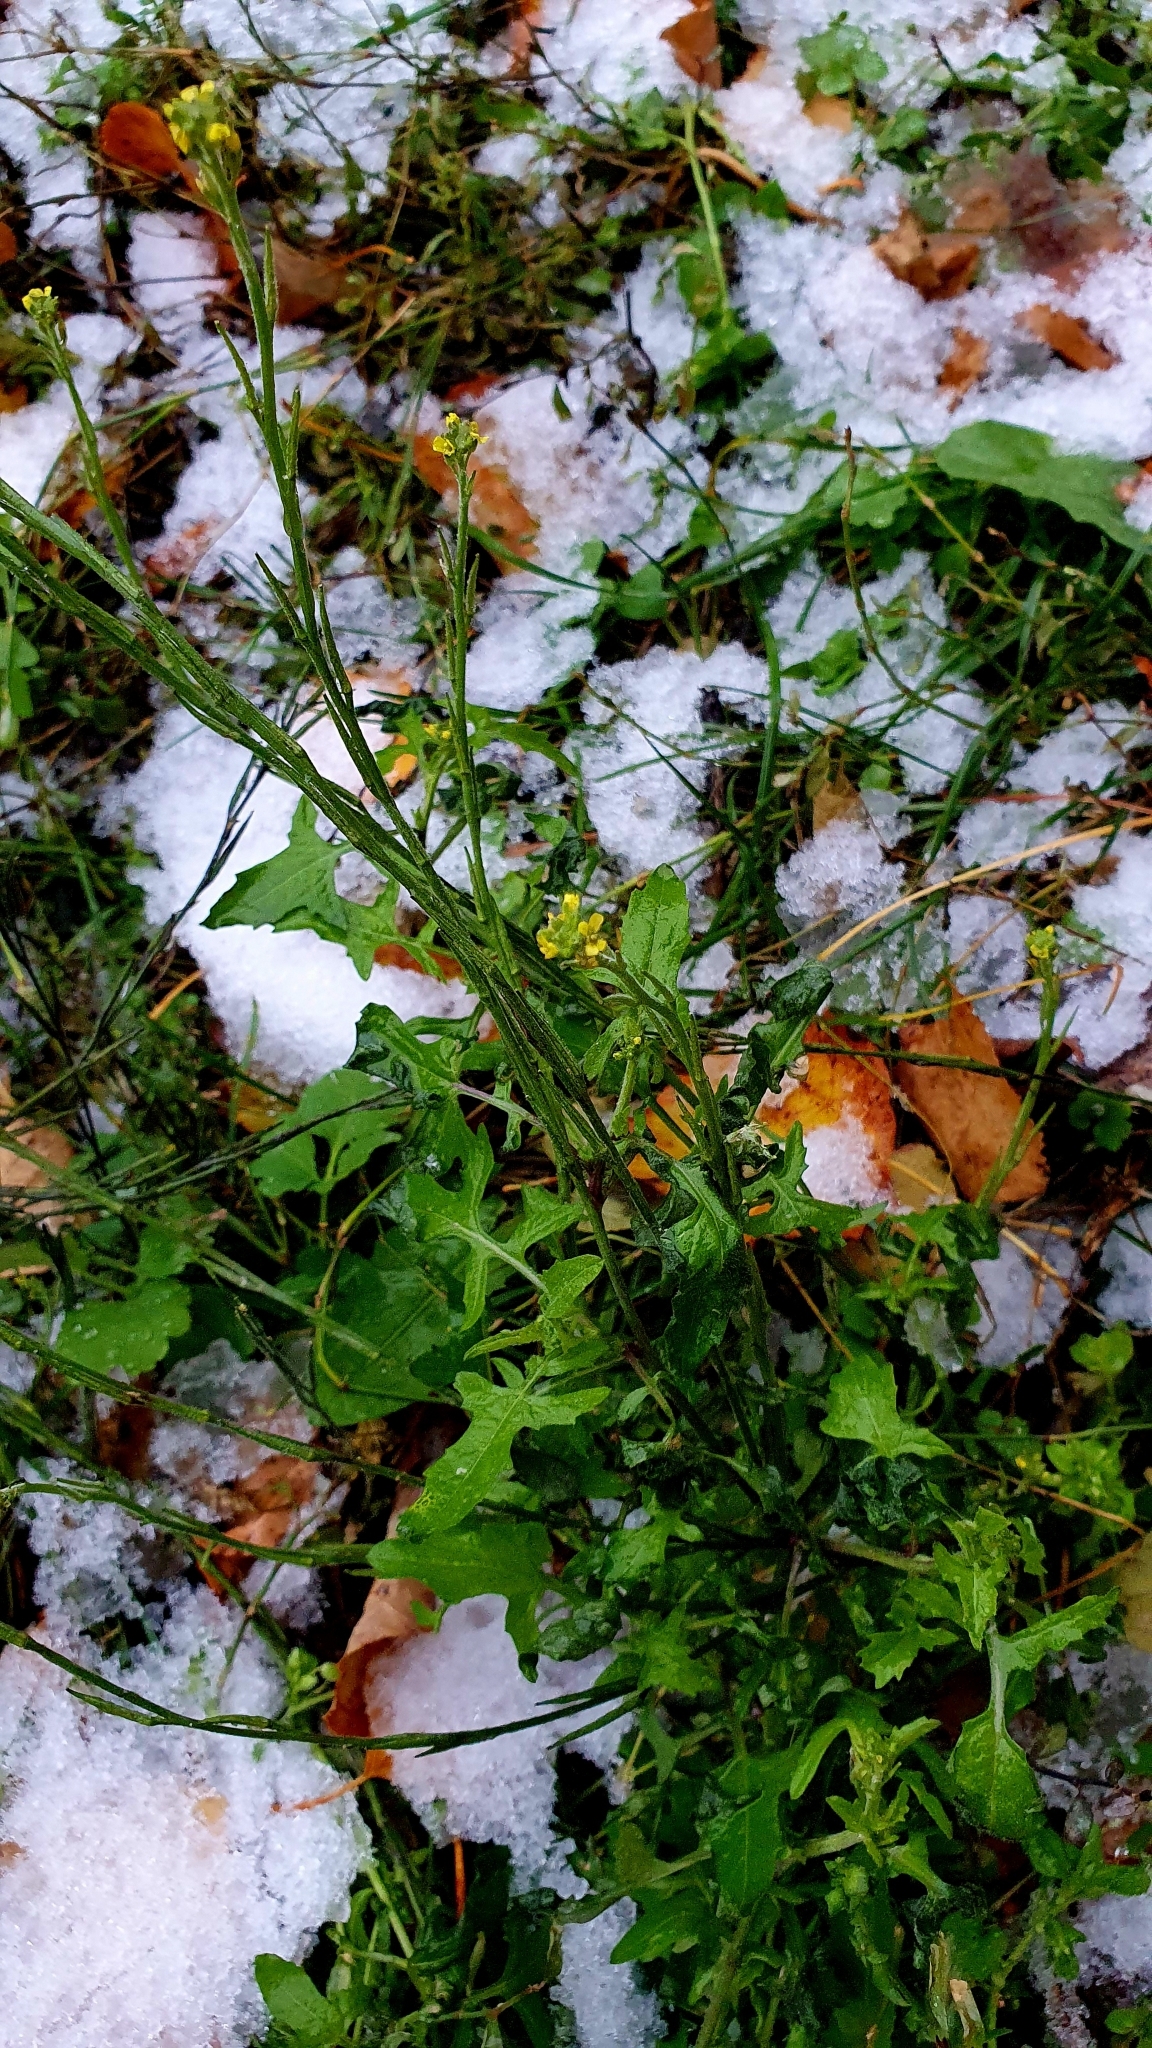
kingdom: Plantae
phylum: Tracheophyta
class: Magnoliopsida
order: Brassicales
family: Brassicaceae
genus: Sisymbrium
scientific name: Sisymbrium officinale
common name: Hedge mustard
